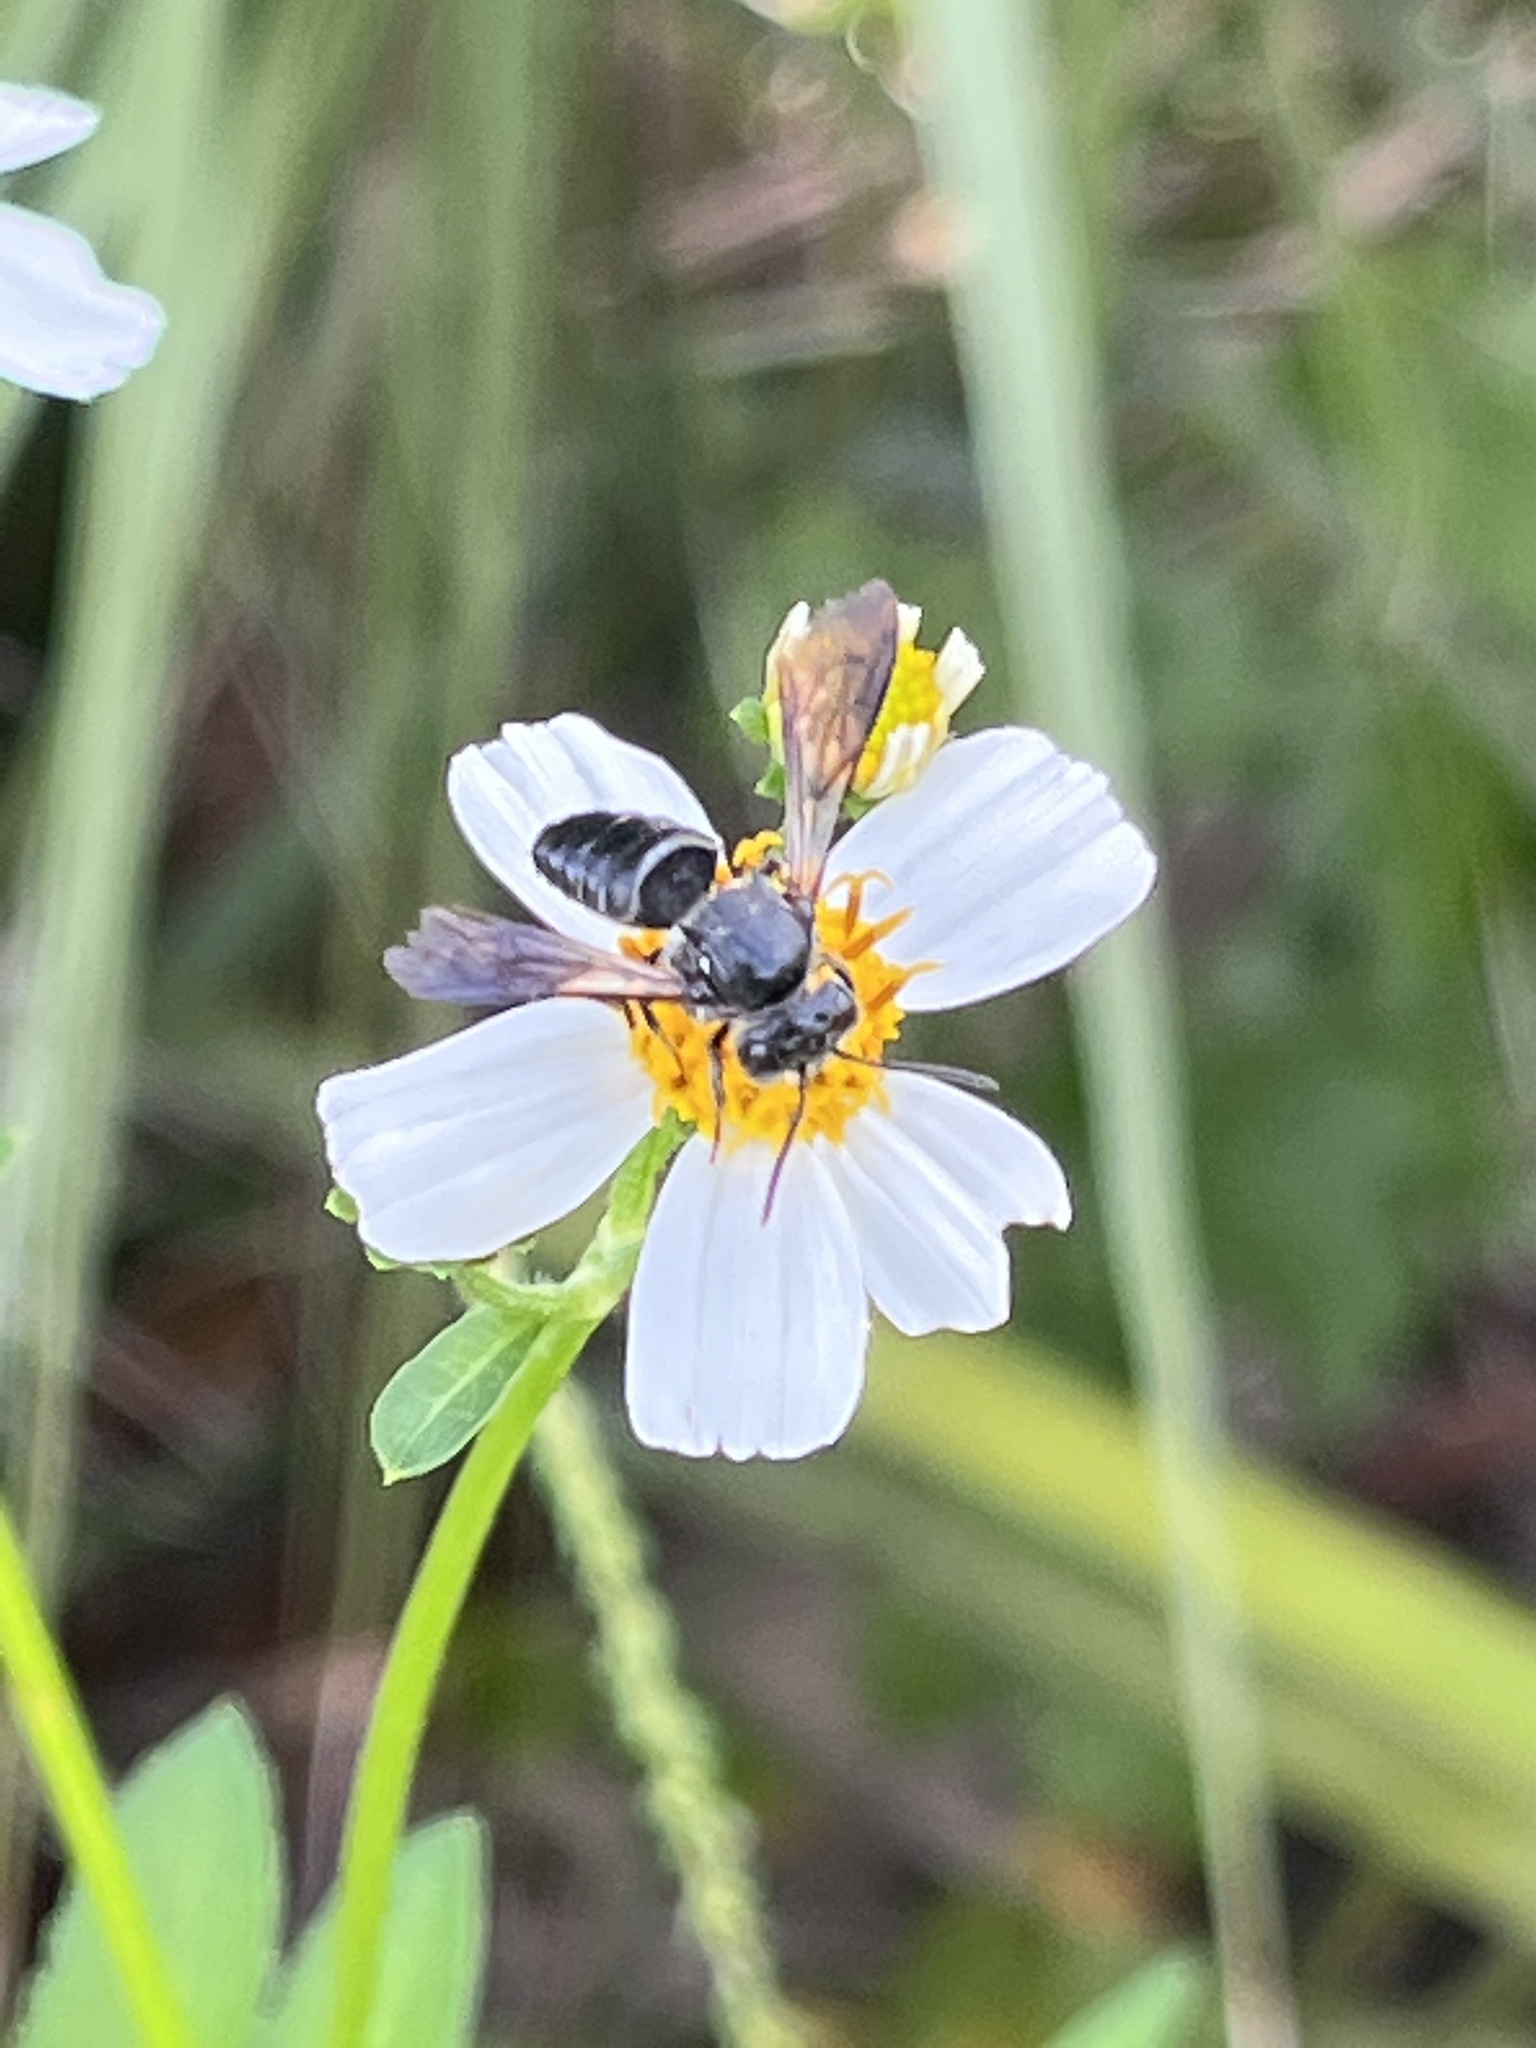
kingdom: Animalia
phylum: Arthropoda
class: Insecta
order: Hymenoptera
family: Megachilidae
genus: Coelioxys
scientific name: Coelioxys dolichos
